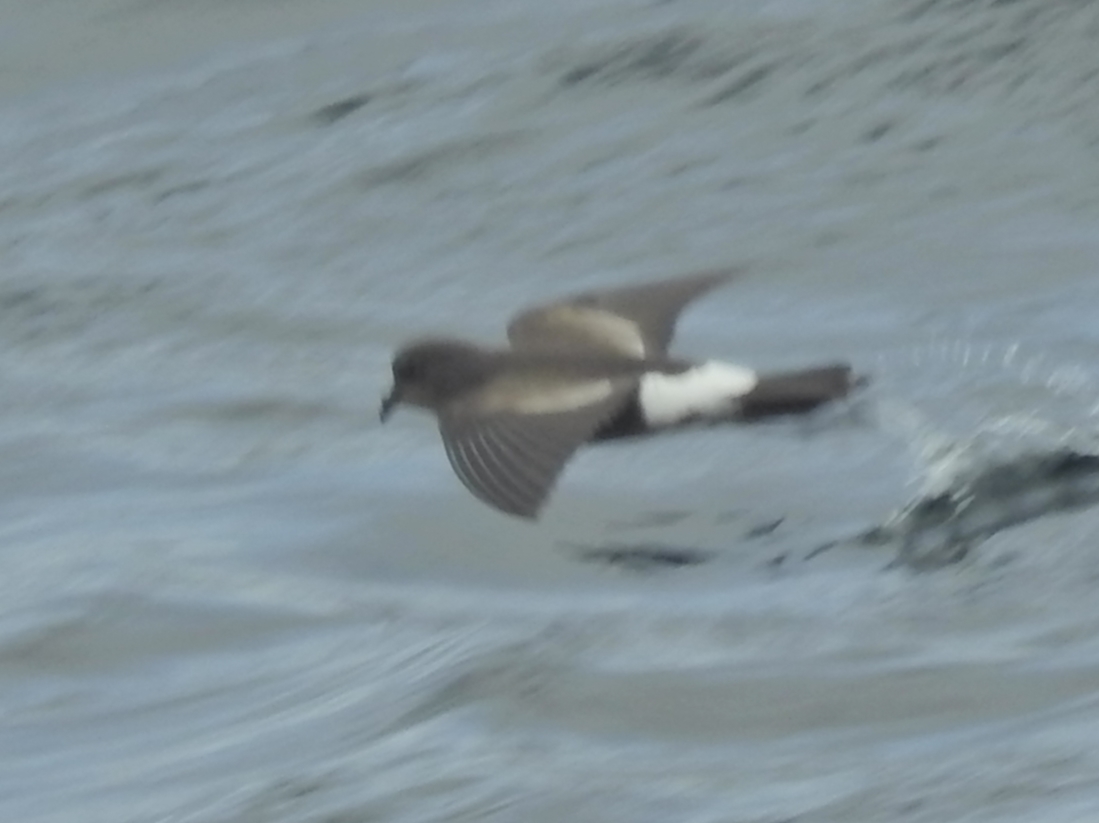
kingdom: Animalia
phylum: Chordata
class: Aves
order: Procellariiformes
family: Hydrobatidae
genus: Oceanites
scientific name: Oceanites oceanicus
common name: Wilson's storm petrel
